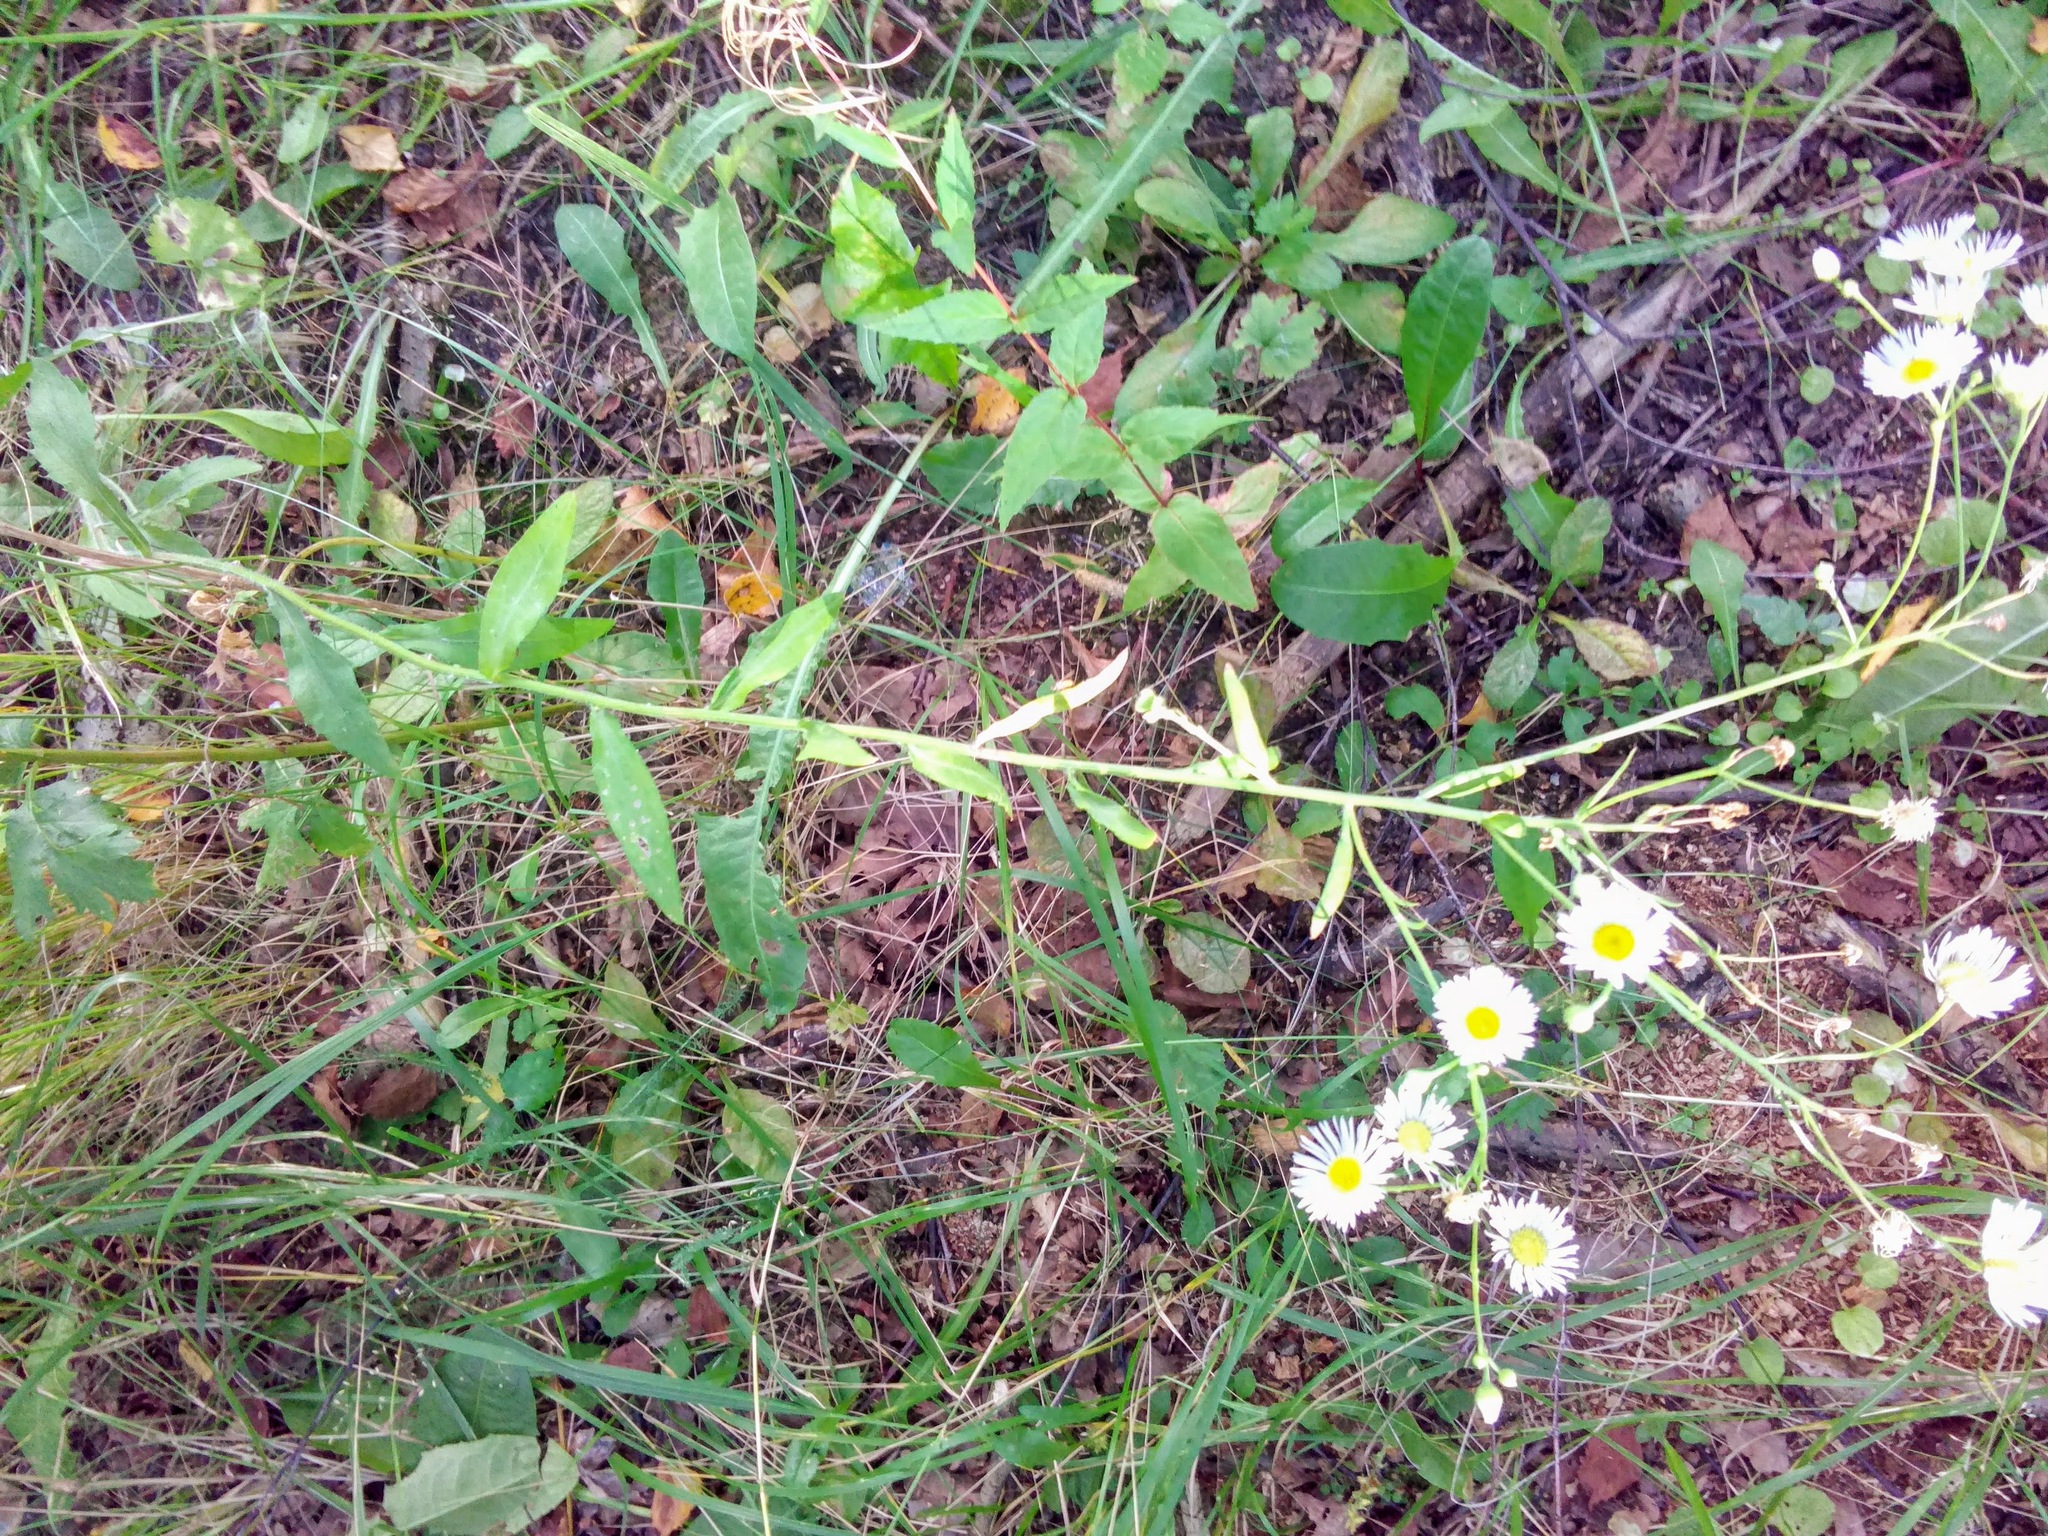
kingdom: Plantae
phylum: Tracheophyta
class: Magnoliopsida
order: Asterales
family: Asteraceae
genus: Erigeron
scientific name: Erigeron annuus
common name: Tall fleabane
